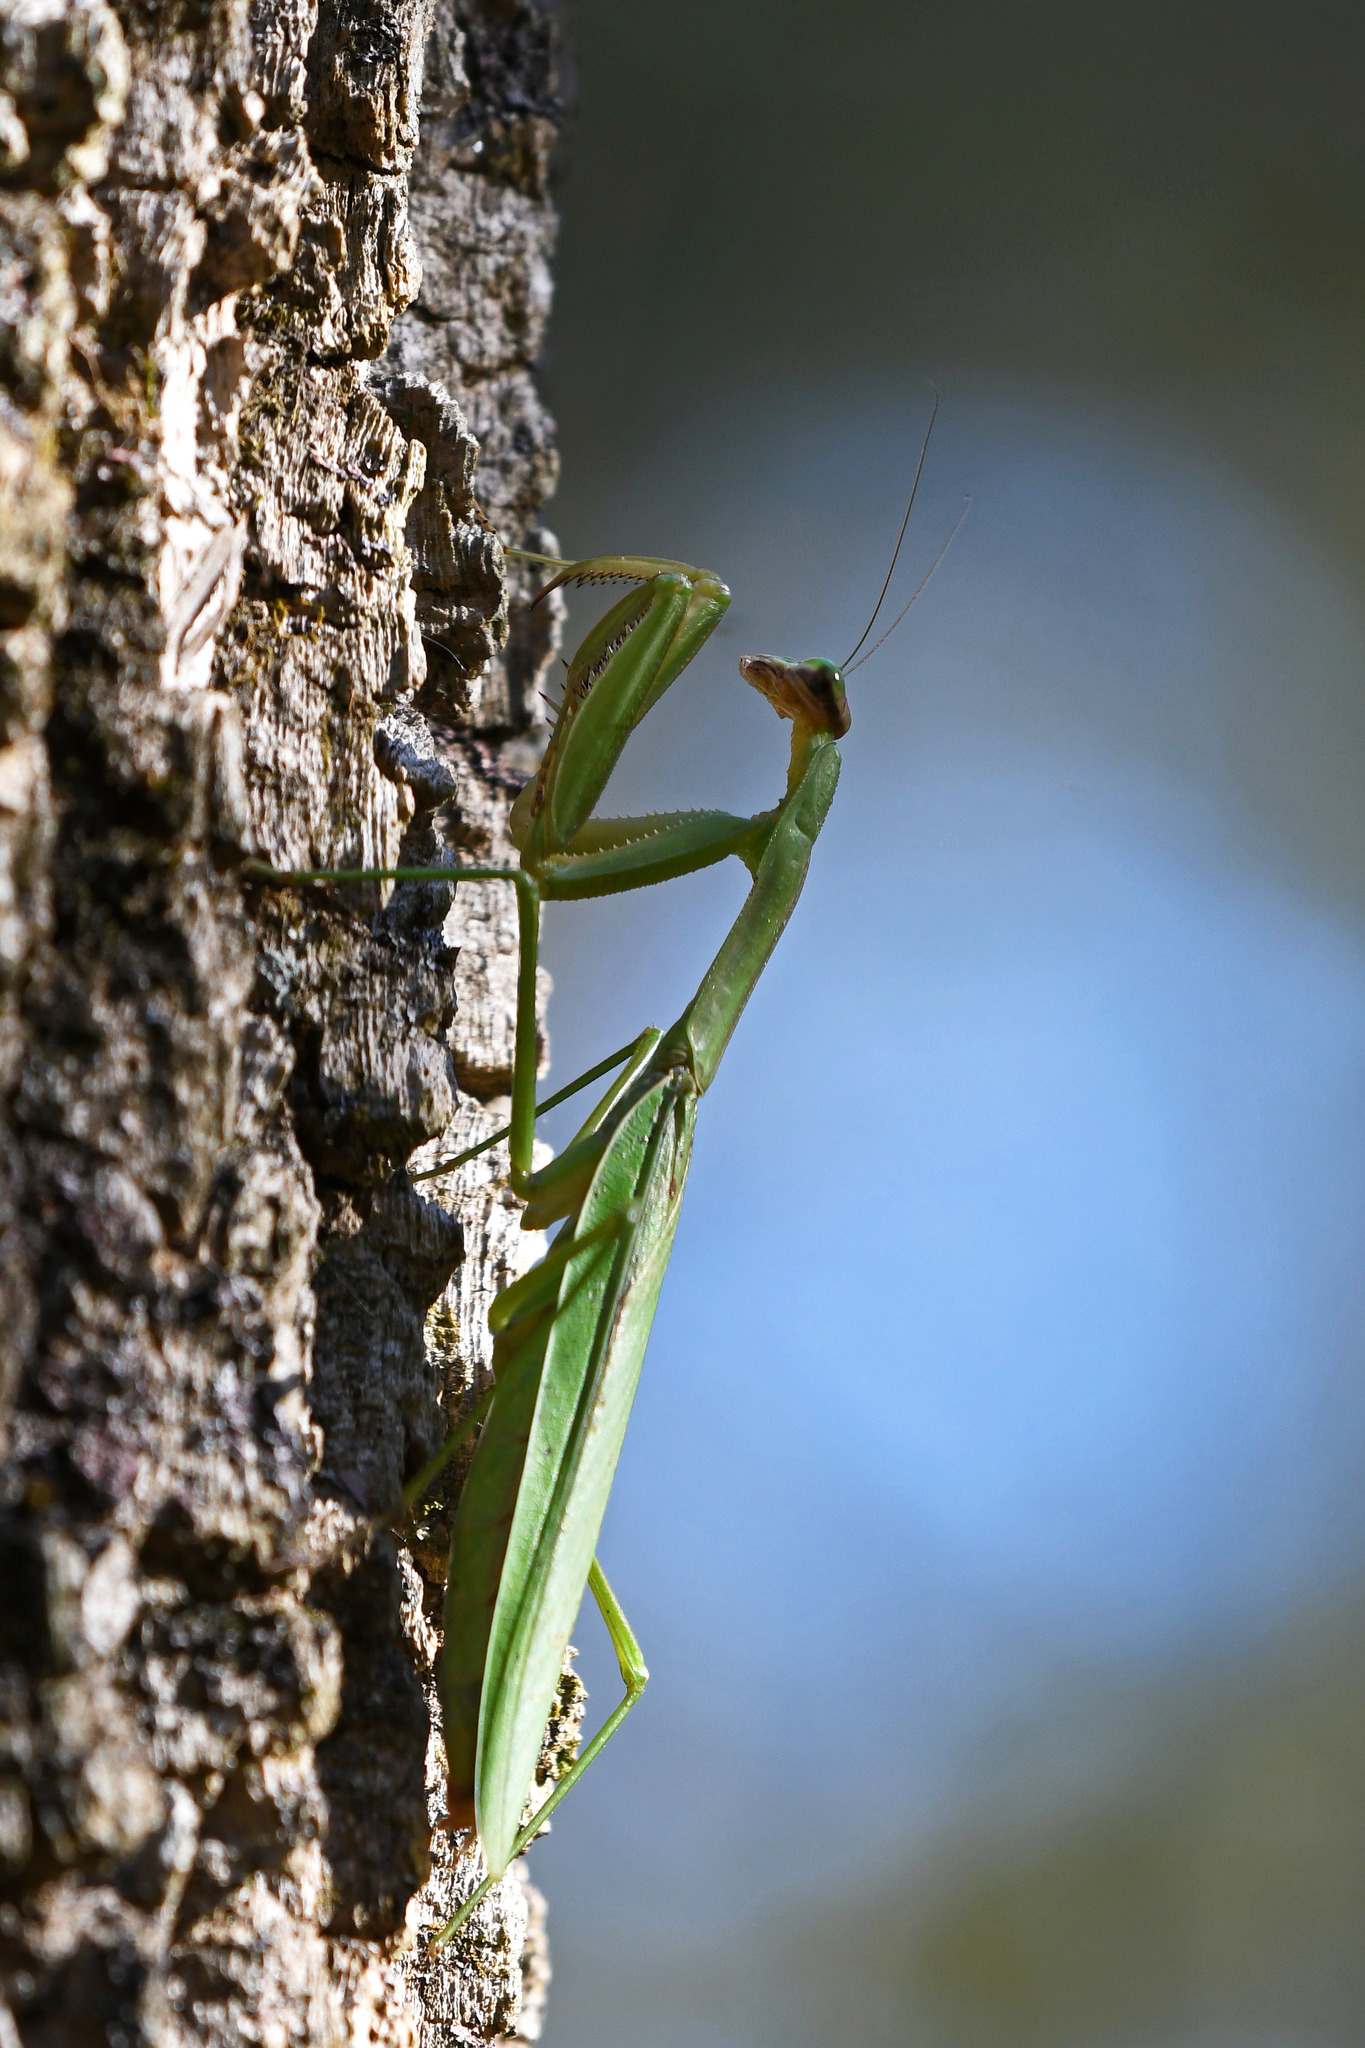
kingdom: Animalia
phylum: Arthropoda
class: Insecta
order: Mantodea
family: Mantidae
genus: Tenodera
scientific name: Tenodera sinensis
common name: Chinese mantis
